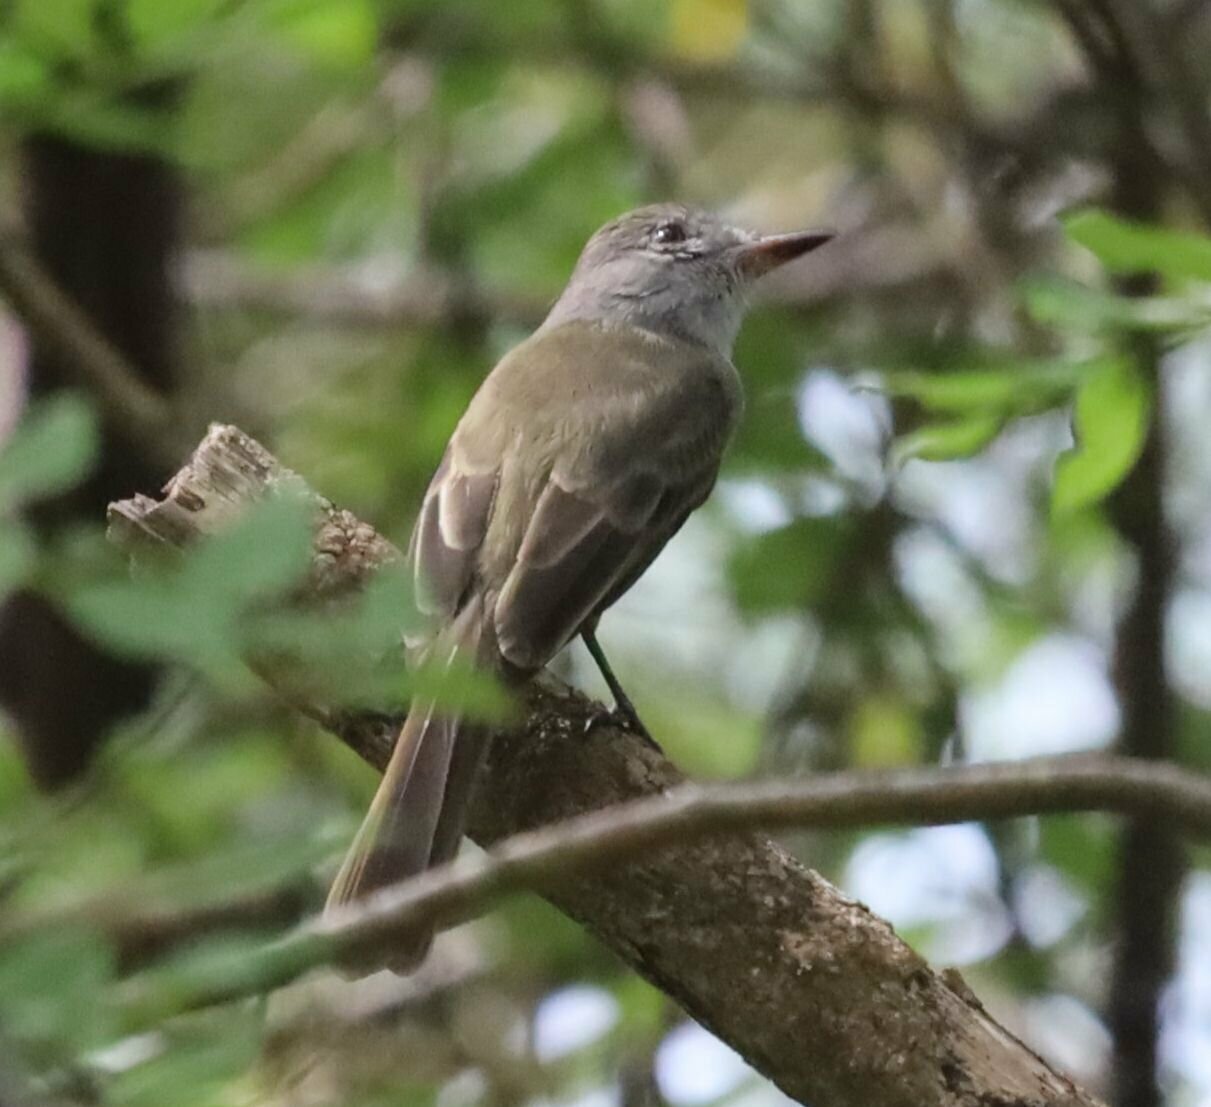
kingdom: Animalia
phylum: Chordata
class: Aves
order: Passeriformes
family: Tyrannidae
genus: Myiarchus
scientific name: Myiarchus panamensis
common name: Panama flycatcher
